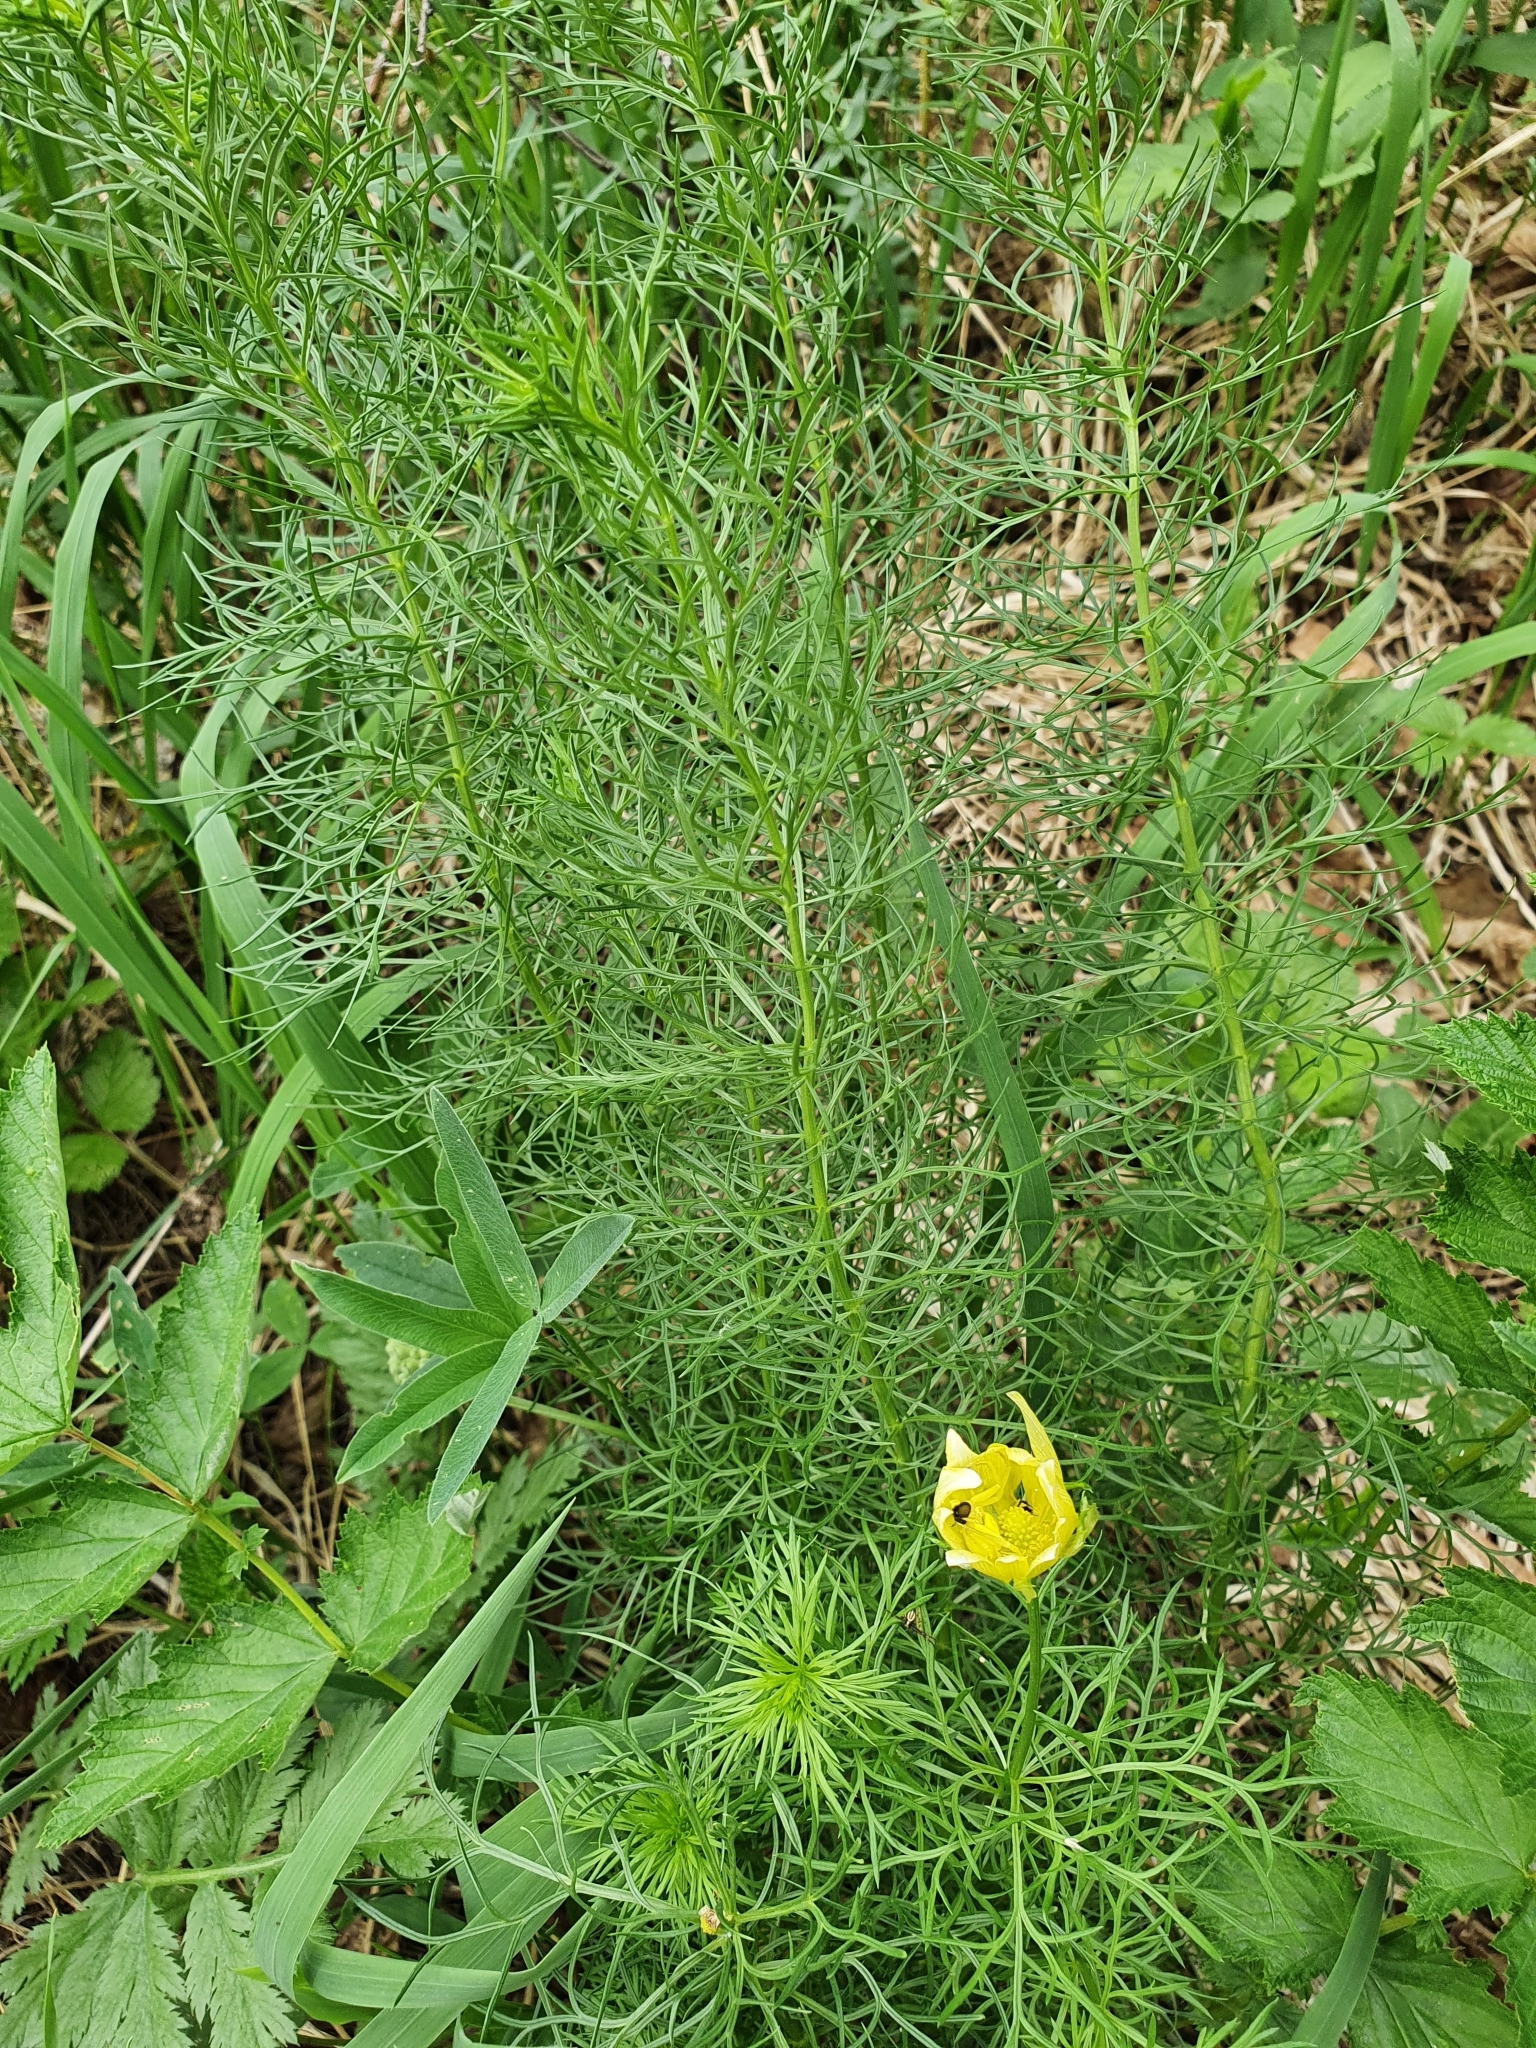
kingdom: Plantae
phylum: Tracheophyta
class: Magnoliopsida
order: Ranunculales
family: Ranunculaceae
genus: Adonis
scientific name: Adonis vernalis
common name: Yellow pheasants-eye
